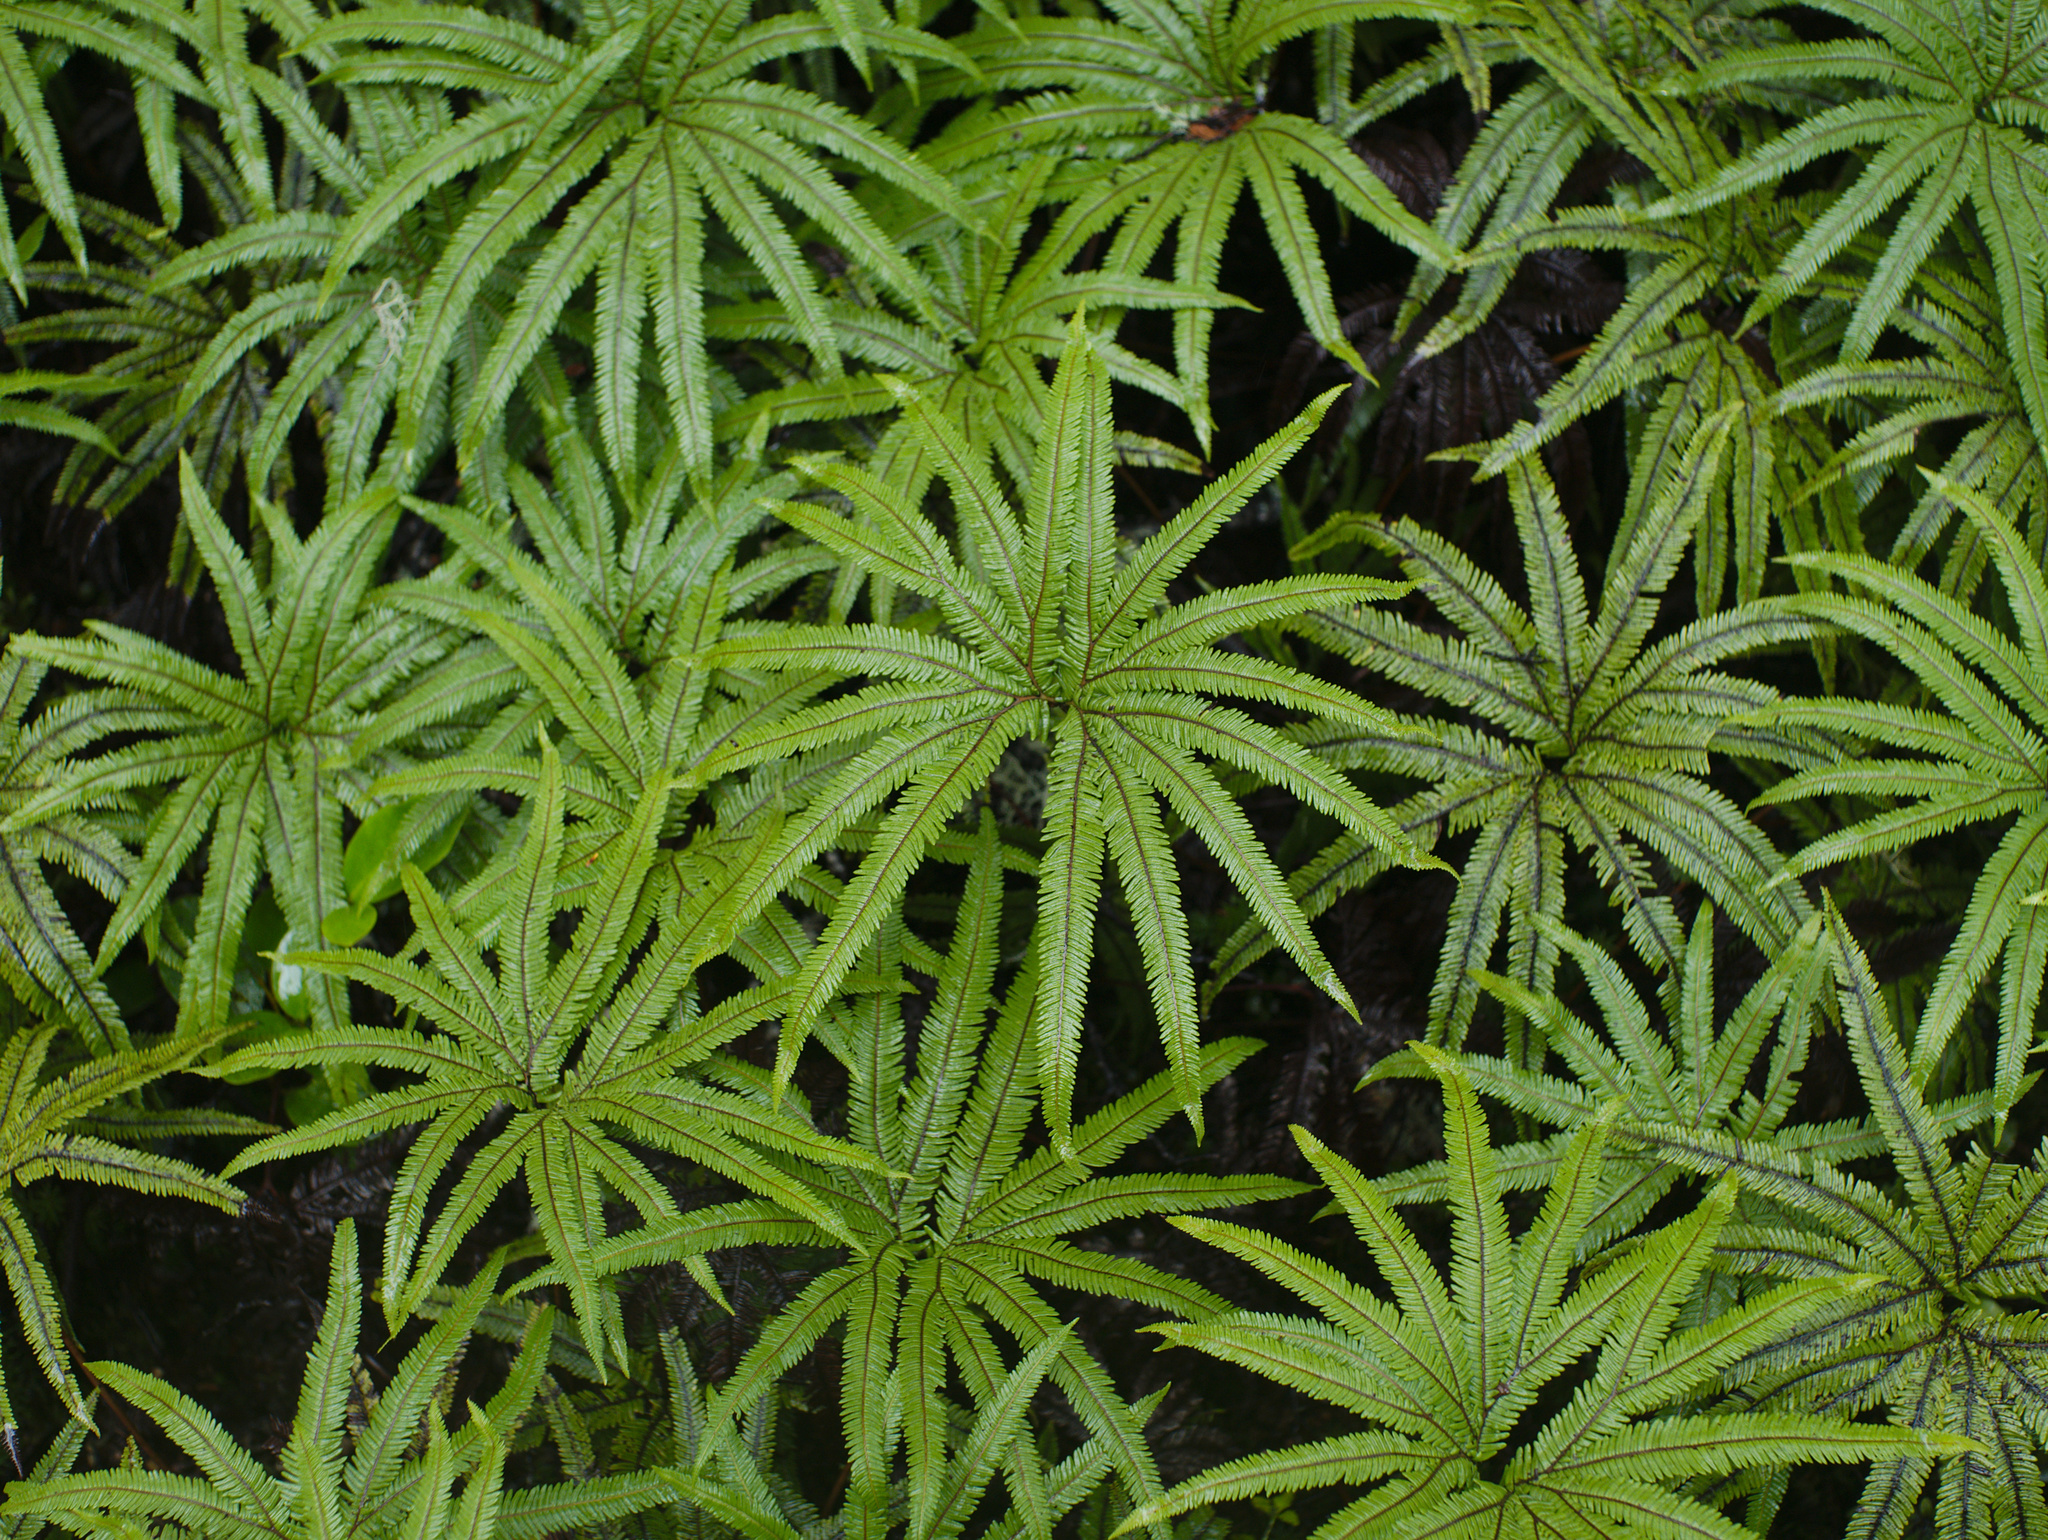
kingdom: Plantae
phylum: Tracheophyta
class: Polypodiopsida
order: Gleicheniales
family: Gleicheniaceae
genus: Sticherus
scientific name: Sticherus cunninghamii
